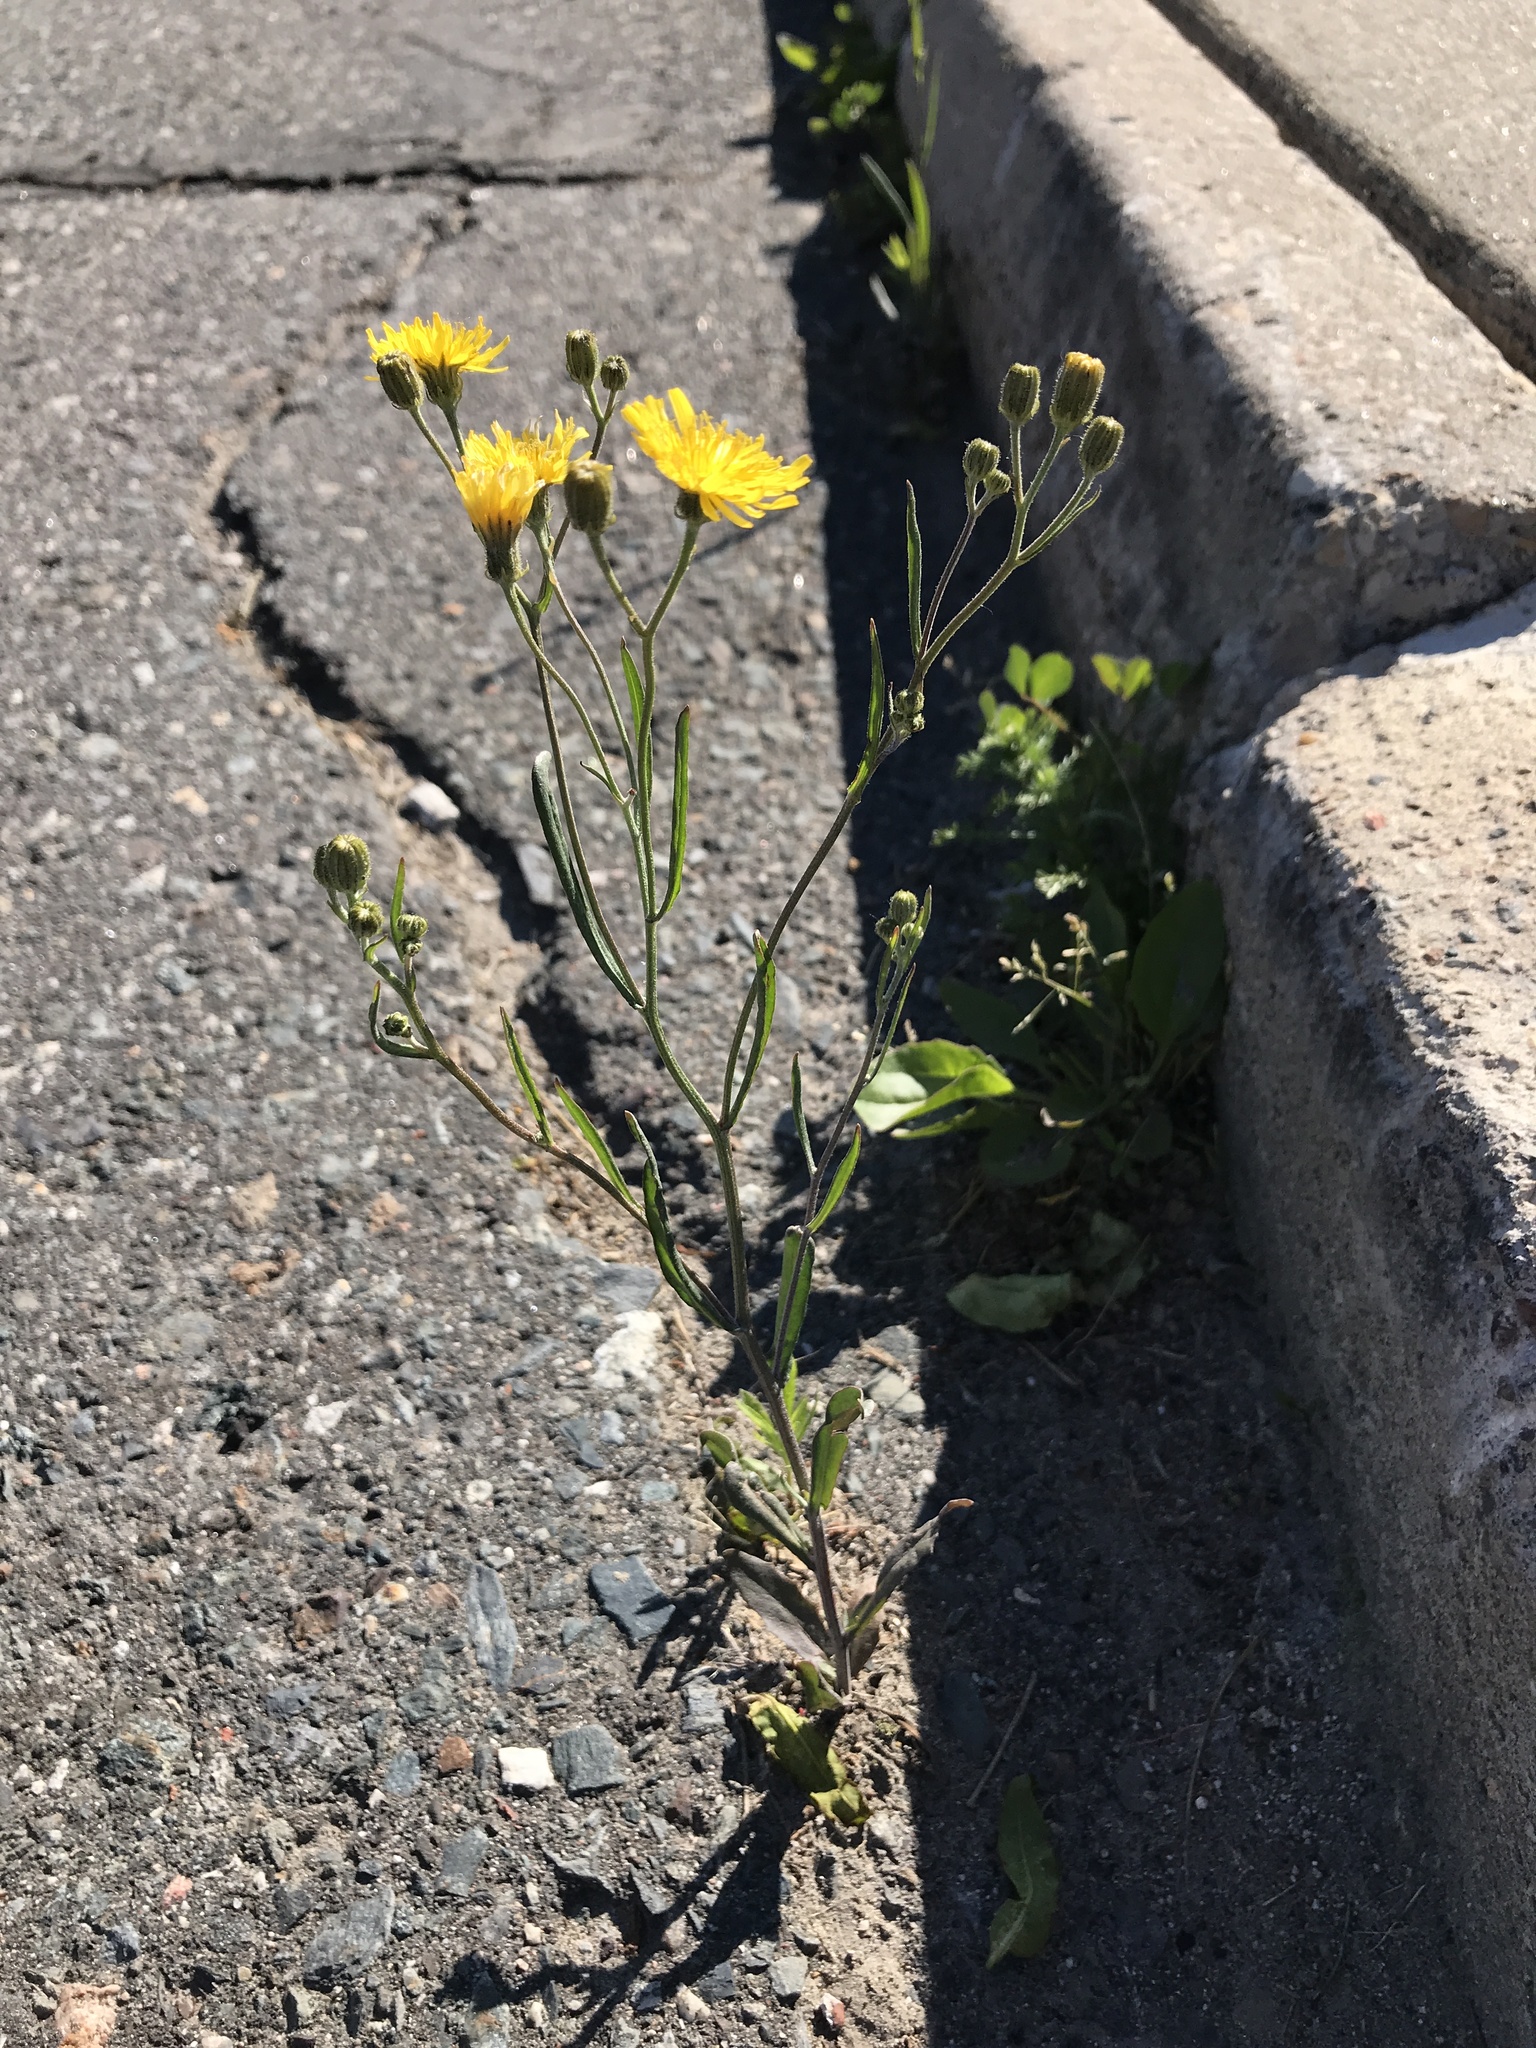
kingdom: Plantae
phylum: Tracheophyta
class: Magnoliopsida
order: Asterales
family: Asteraceae
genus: Crepis
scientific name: Crepis tectorum
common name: Narrow-leaved hawk's-beard
